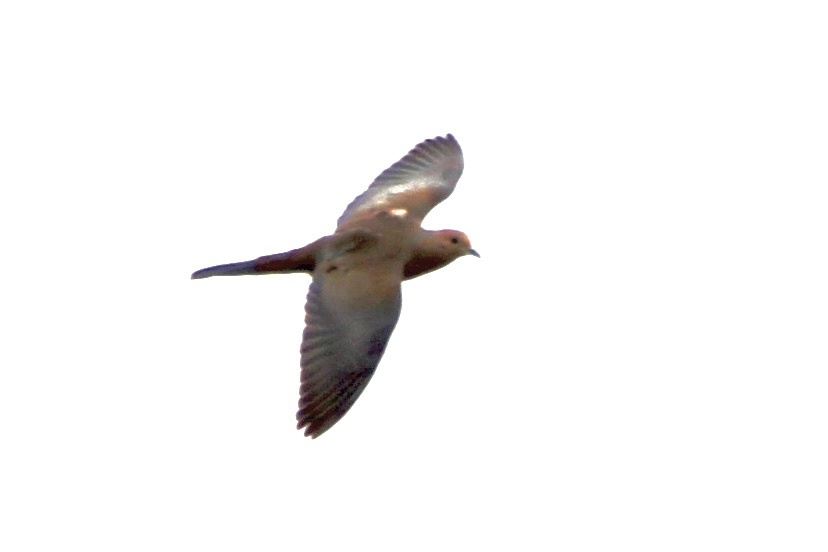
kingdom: Animalia
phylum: Chordata
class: Aves
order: Columbiformes
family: Columbidae
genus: Zenaida
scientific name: Zenaida macroura
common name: Mourning dove
